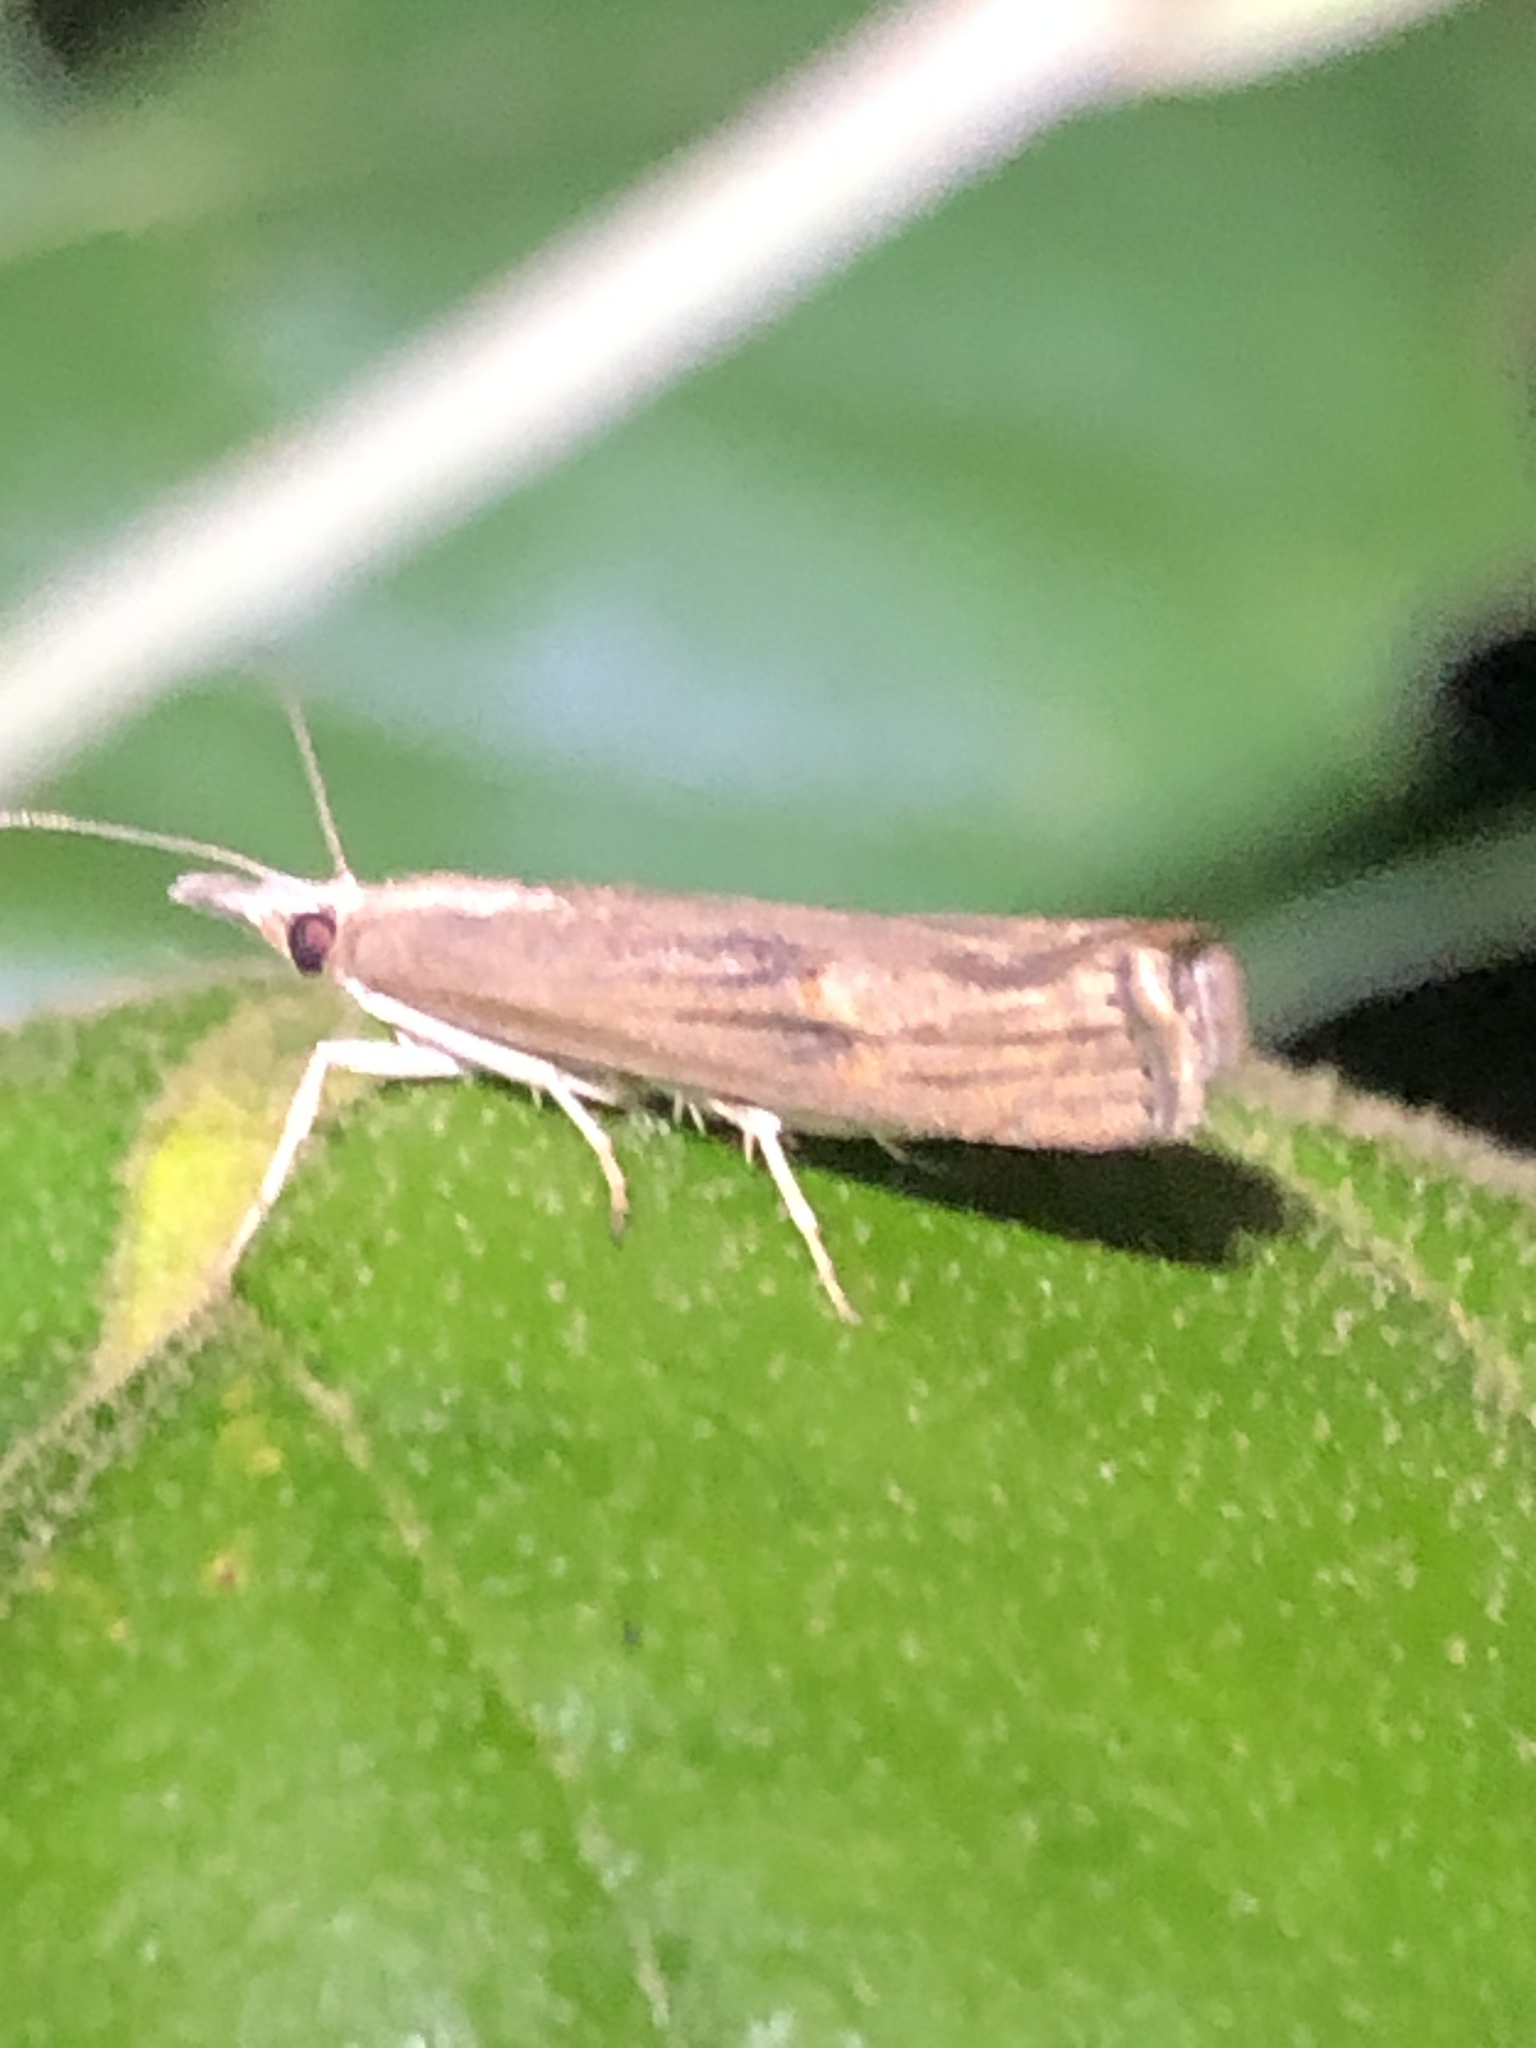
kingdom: Animalia
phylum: Arthropoda
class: Insecta
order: Lepidoptera
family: Crambidae
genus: Parapediasia
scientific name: Parapediasia teterellus
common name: Bluegrass webworm moth
